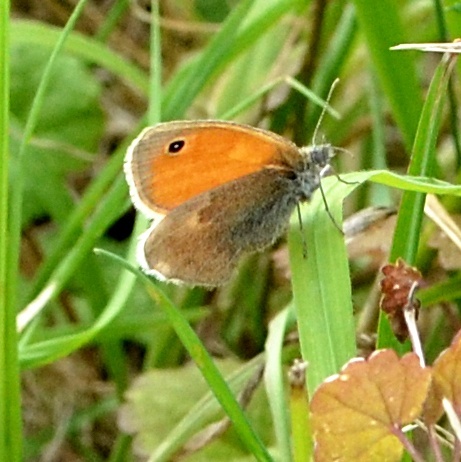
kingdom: Animalia
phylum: Arthropoda
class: Insecta
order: Lepidoptera
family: Nymphalidae
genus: Coenonympha
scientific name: Coenonympha pamphilus
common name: Small heath
